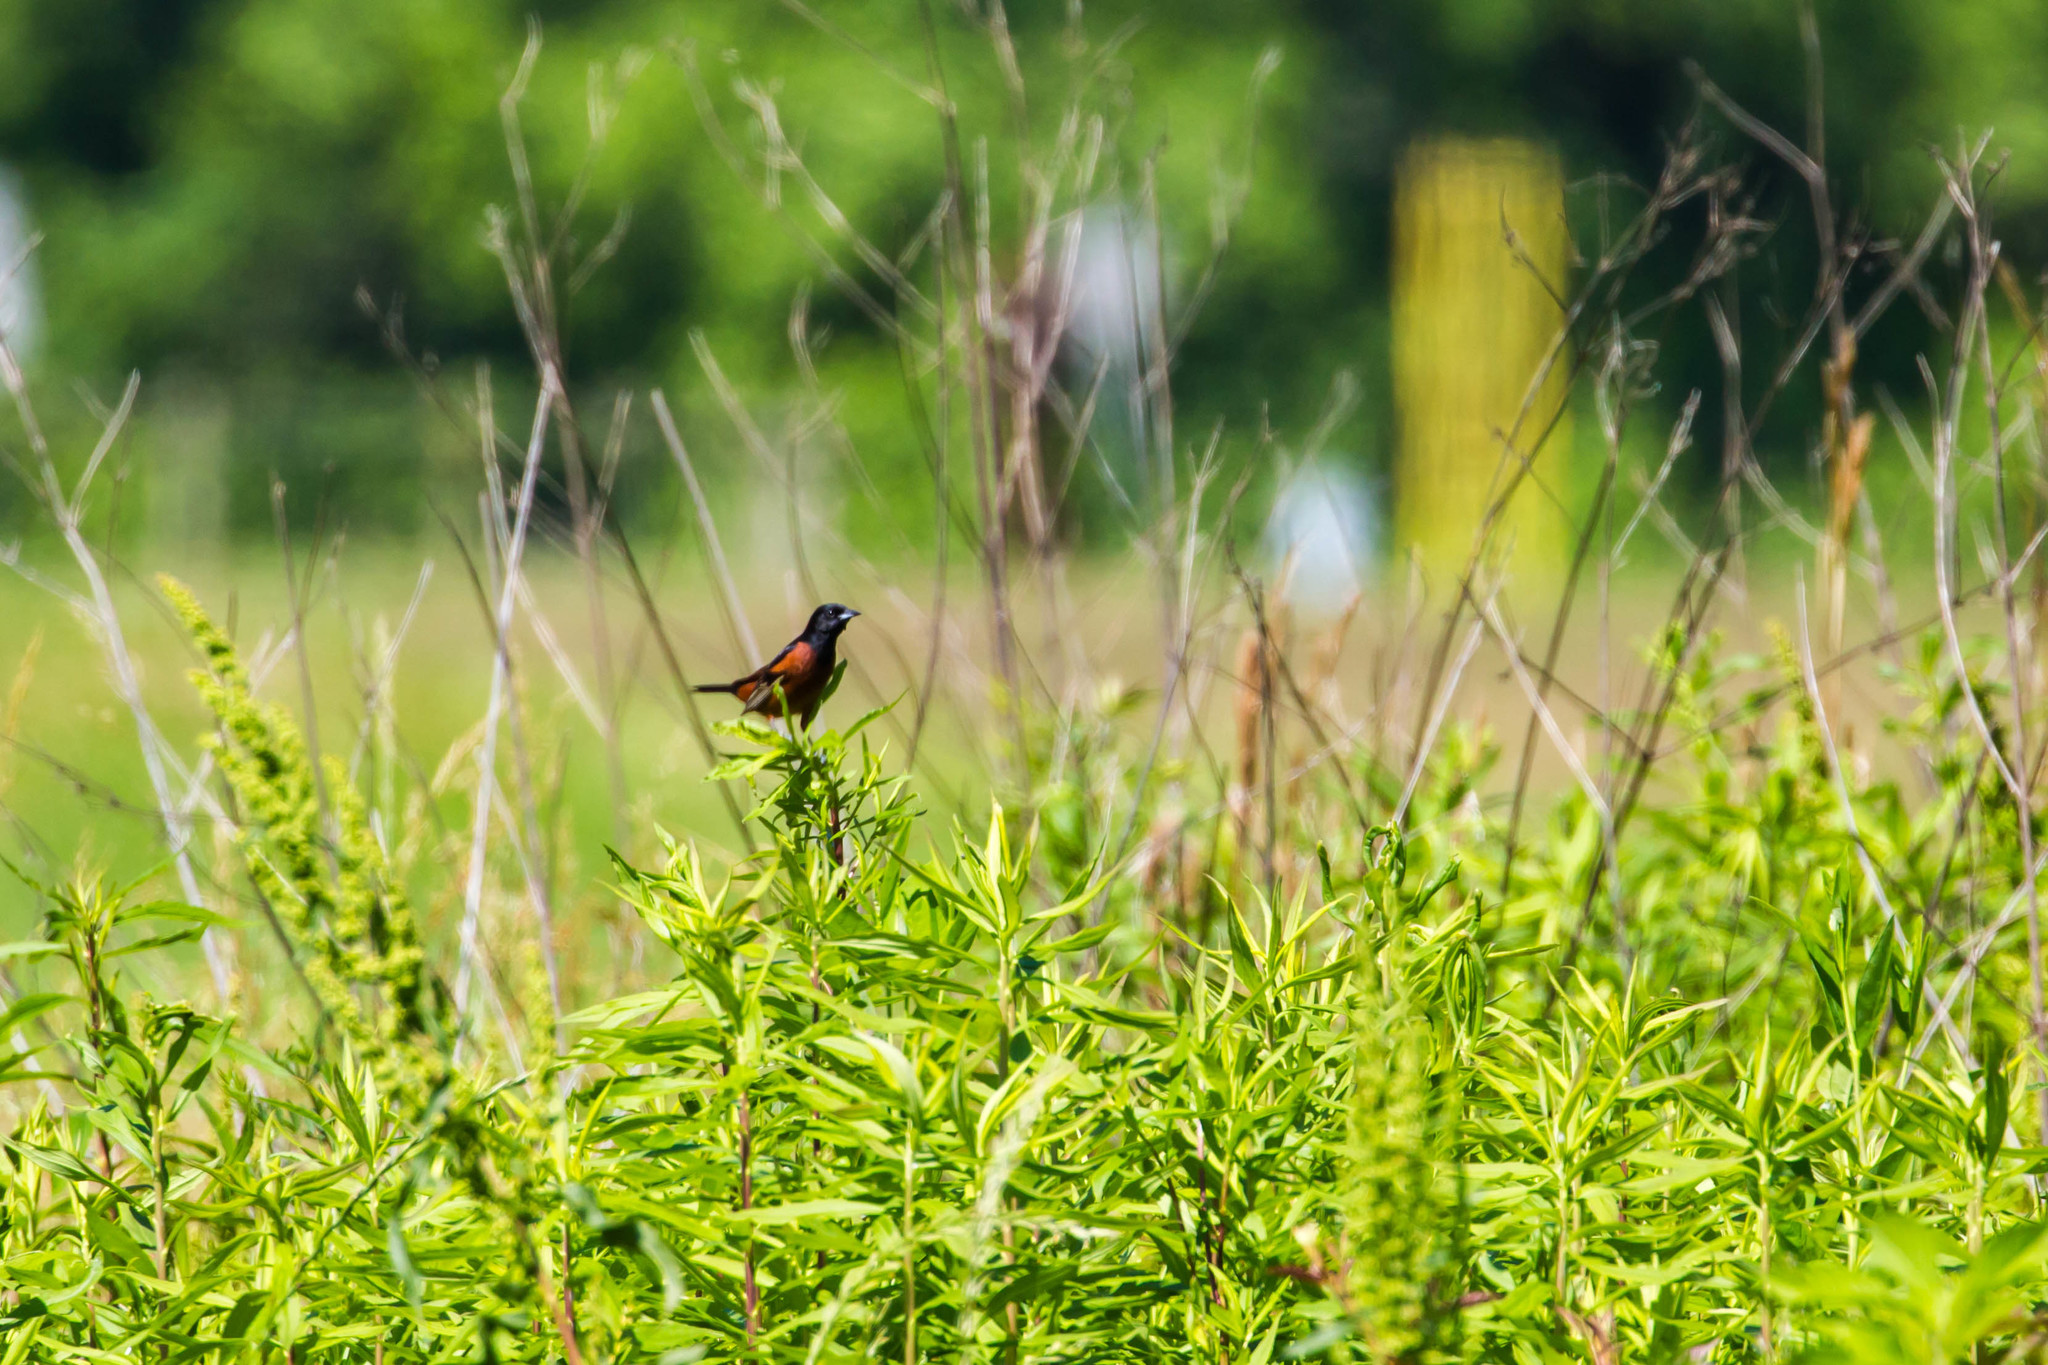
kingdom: Animalia
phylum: Chordata
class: Aves
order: Passeriformes
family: Icteridae
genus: Icterus
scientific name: Icterus spurius
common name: Orchard oriole
